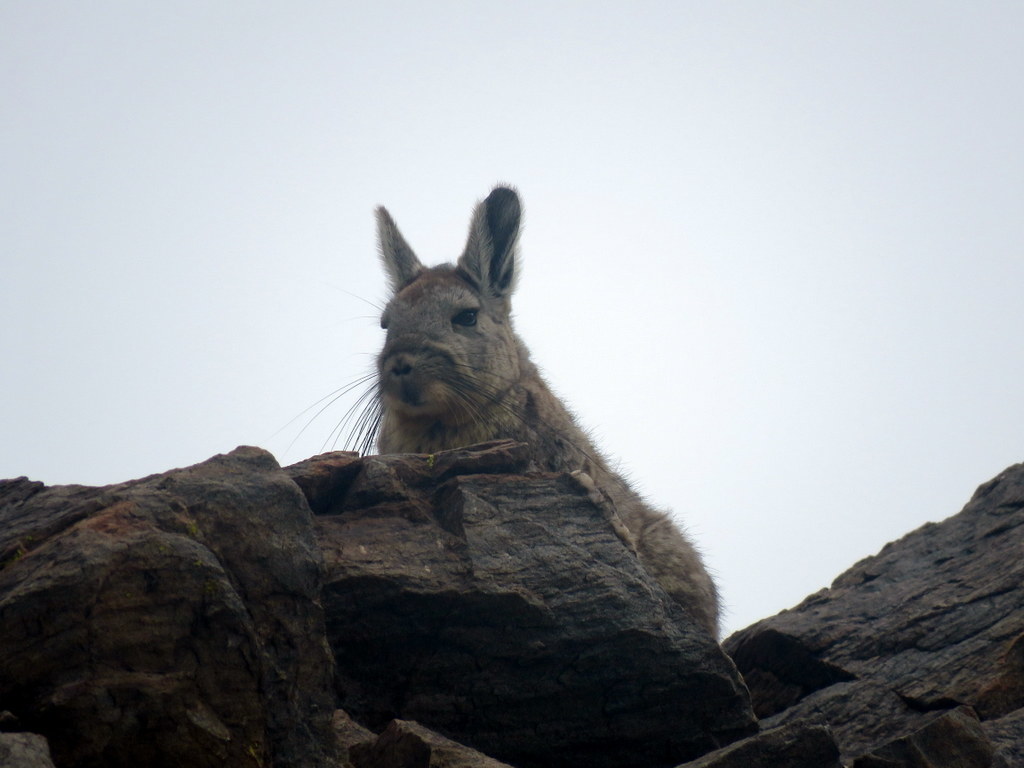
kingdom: Animalia
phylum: Chordata
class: Mammalia
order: Rodentia
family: Chinchillidae
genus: Lagidium
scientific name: Lagidium viscacia
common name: Southern viscacha
